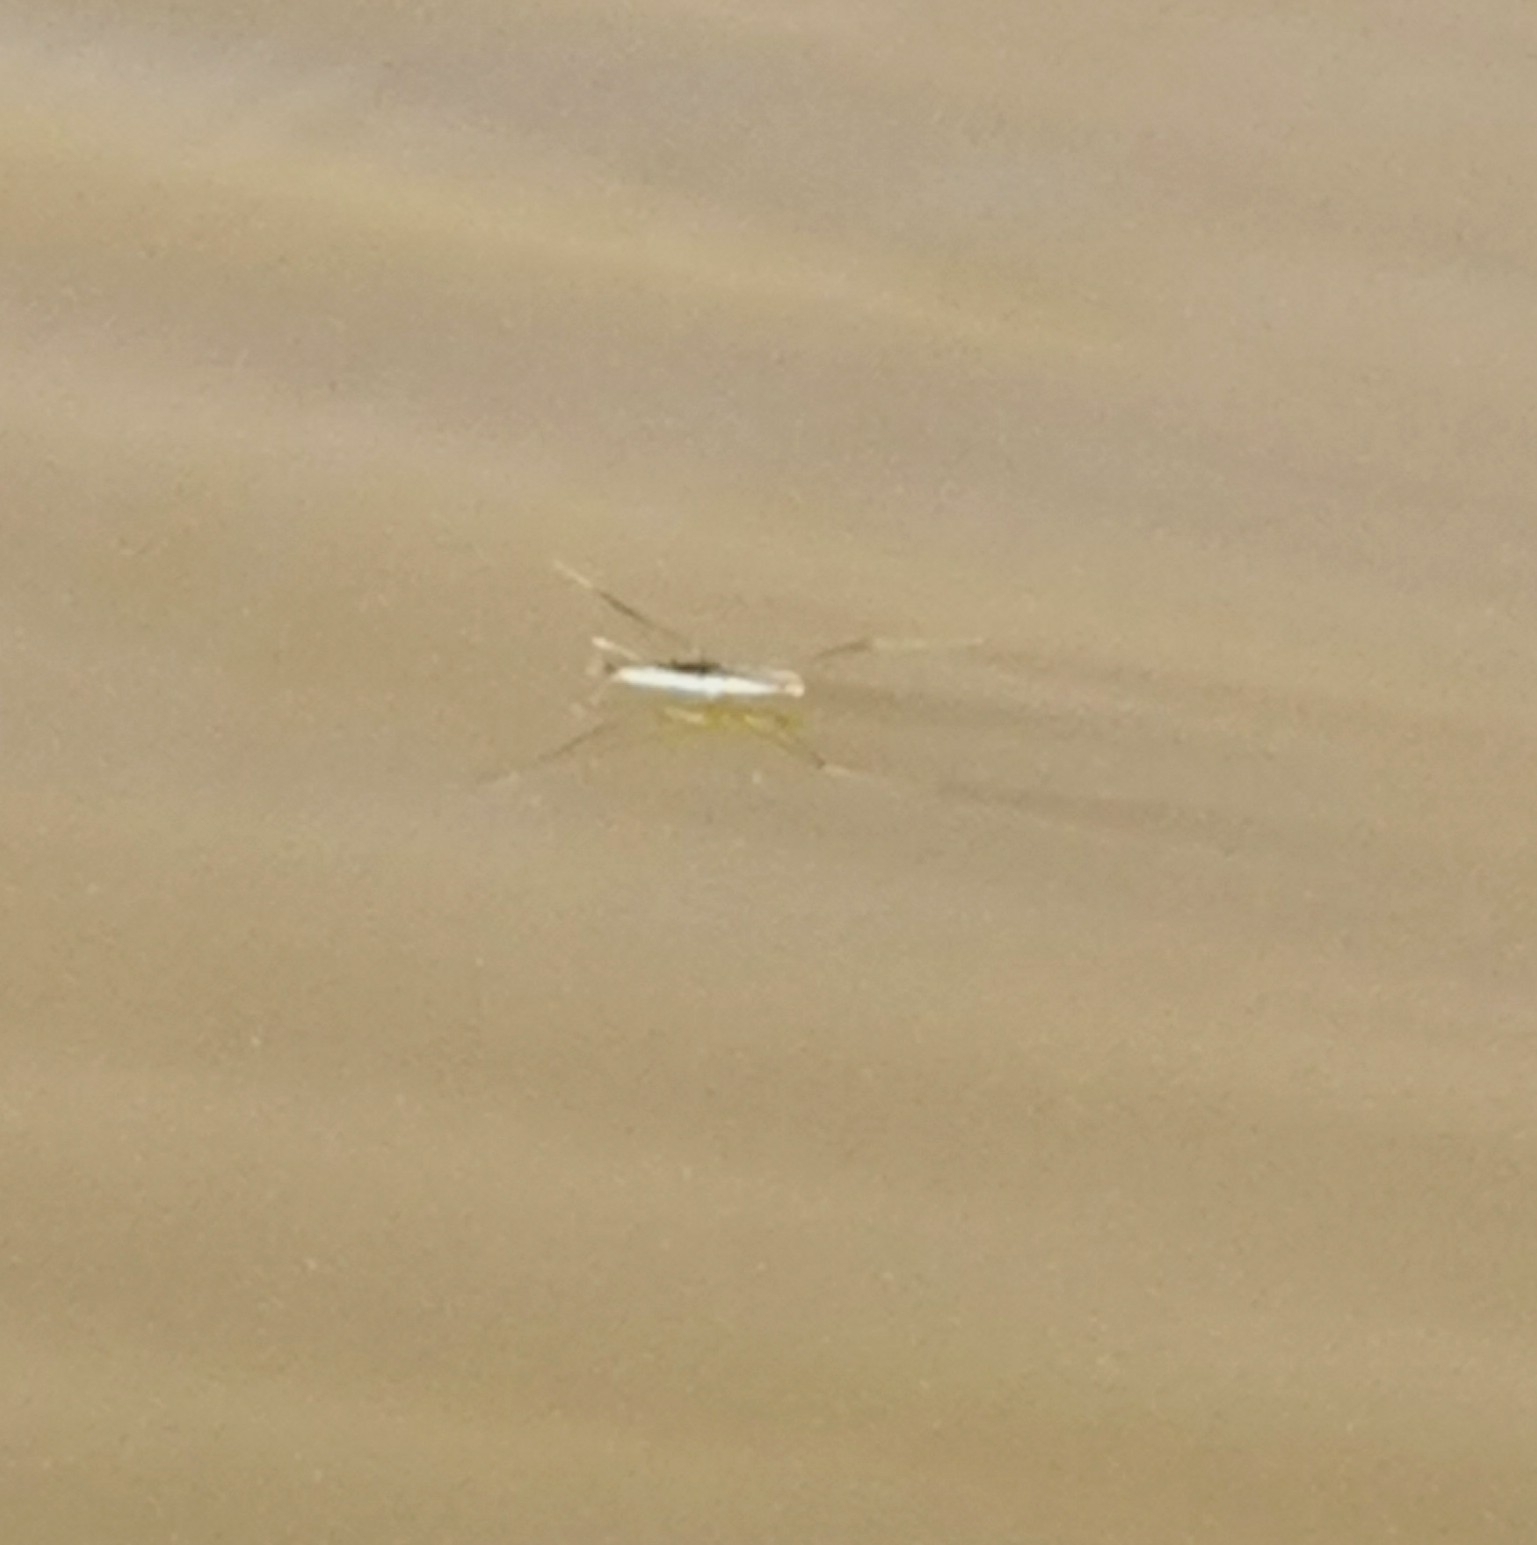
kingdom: Animalia
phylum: Arthropoda
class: Insecta
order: Hemiptera
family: Gerridae
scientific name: Gerridae
